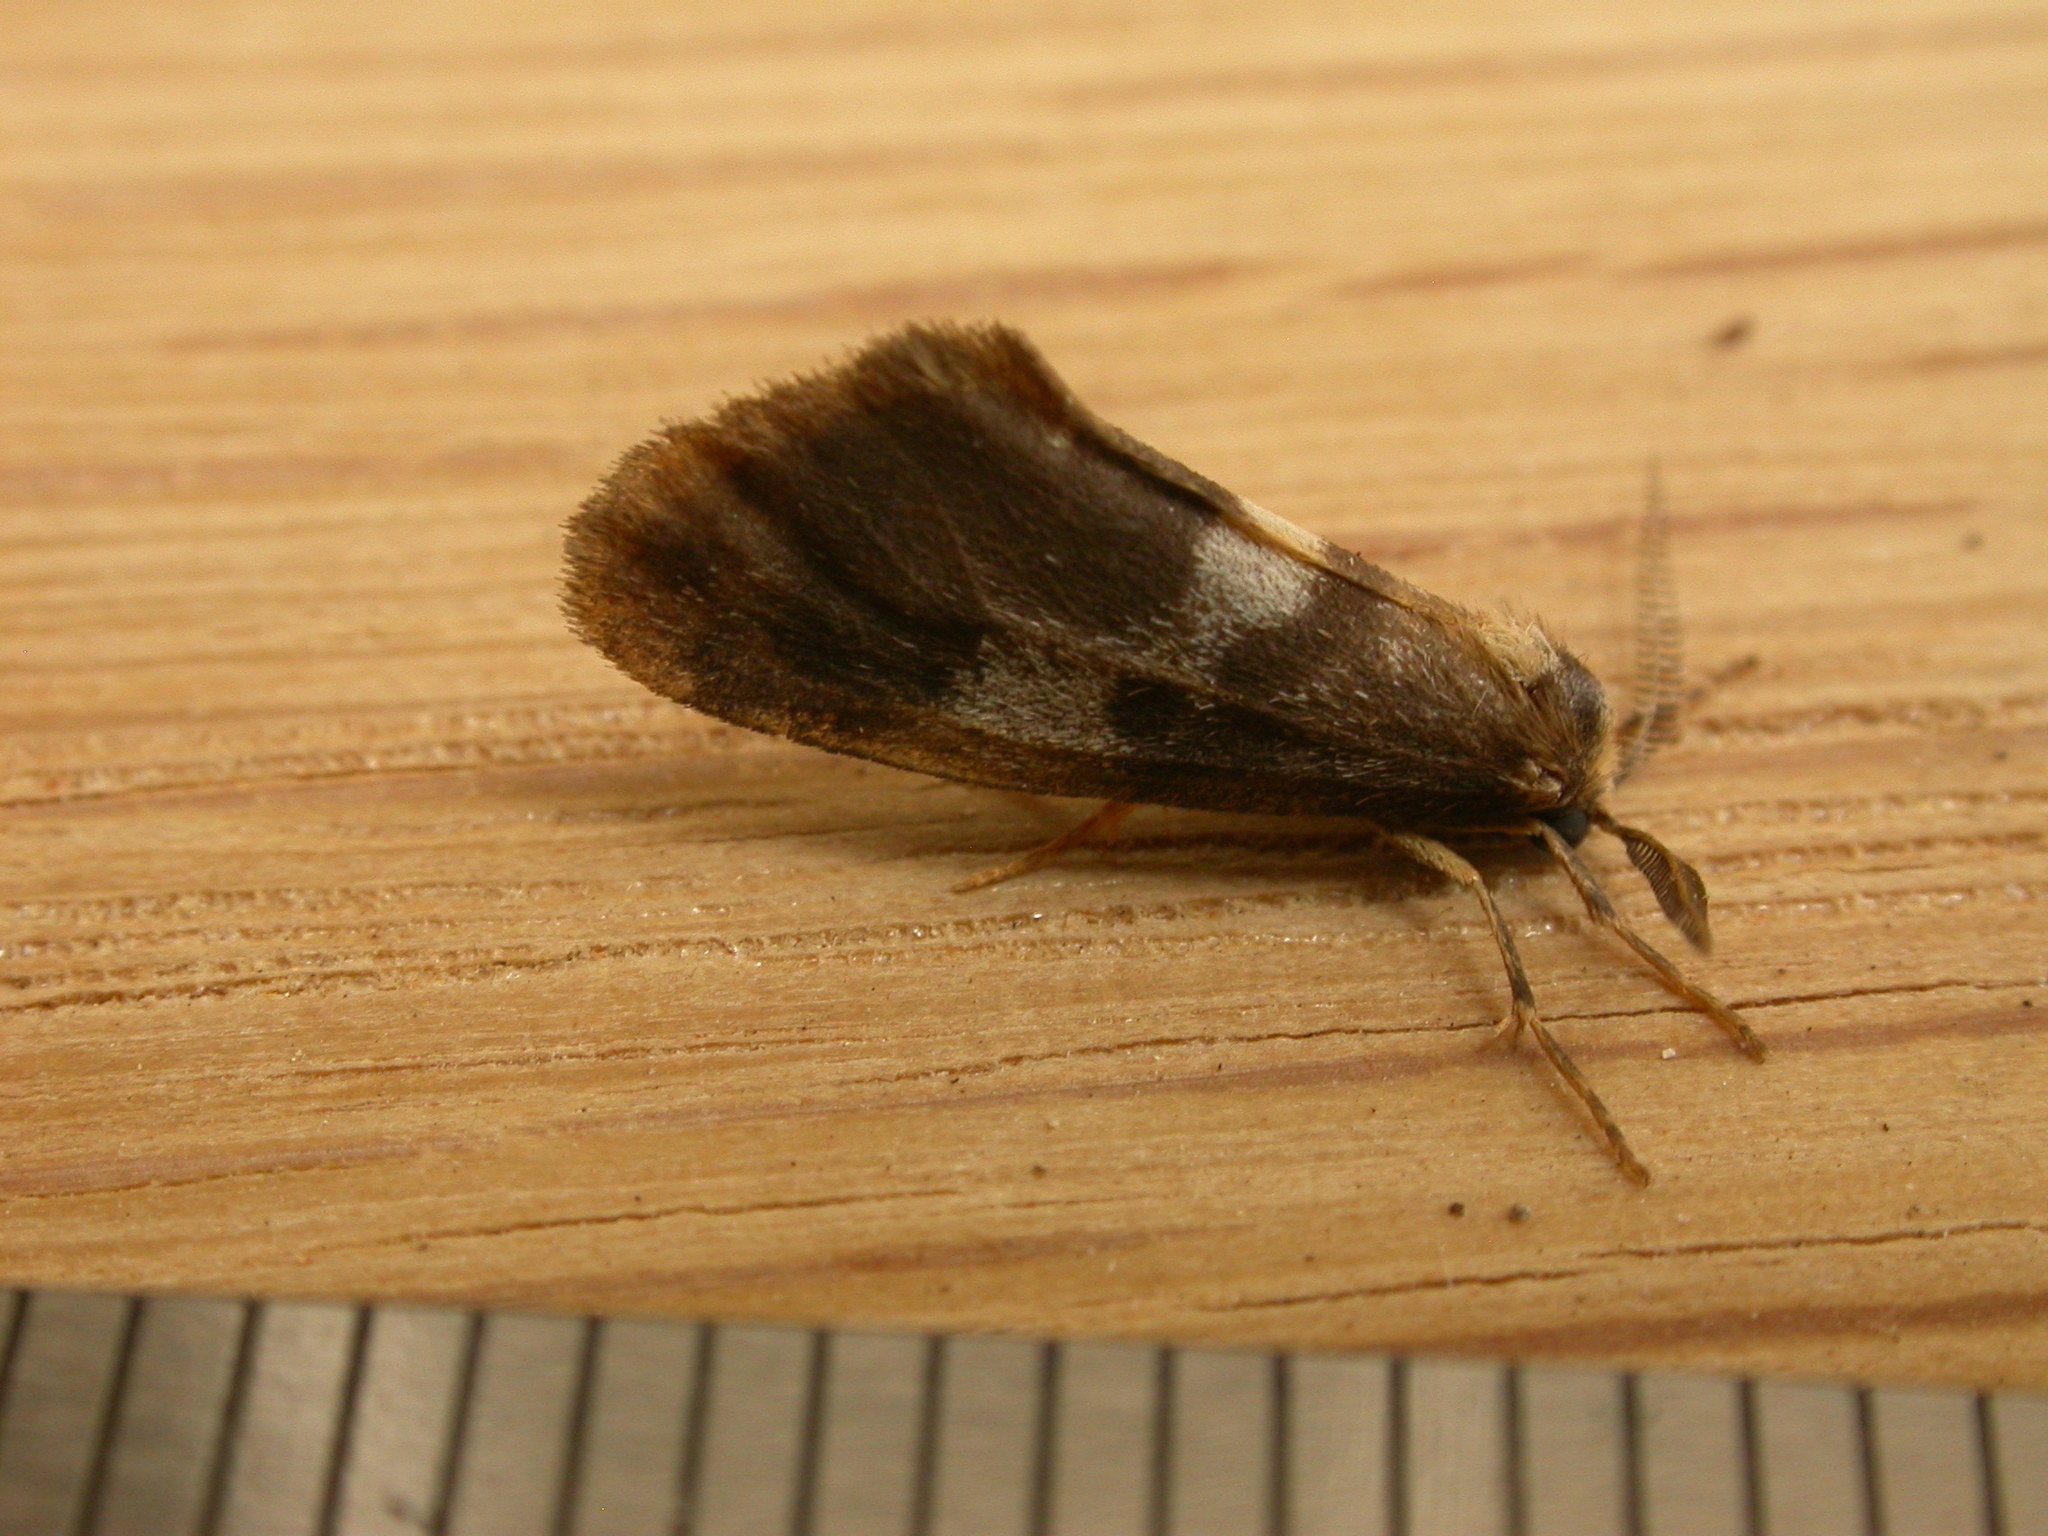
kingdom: Animalia
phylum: Arthropoda
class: Insecta
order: Lepidoptera
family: Erebidae
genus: Anestia
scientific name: Anestia semiochrea
